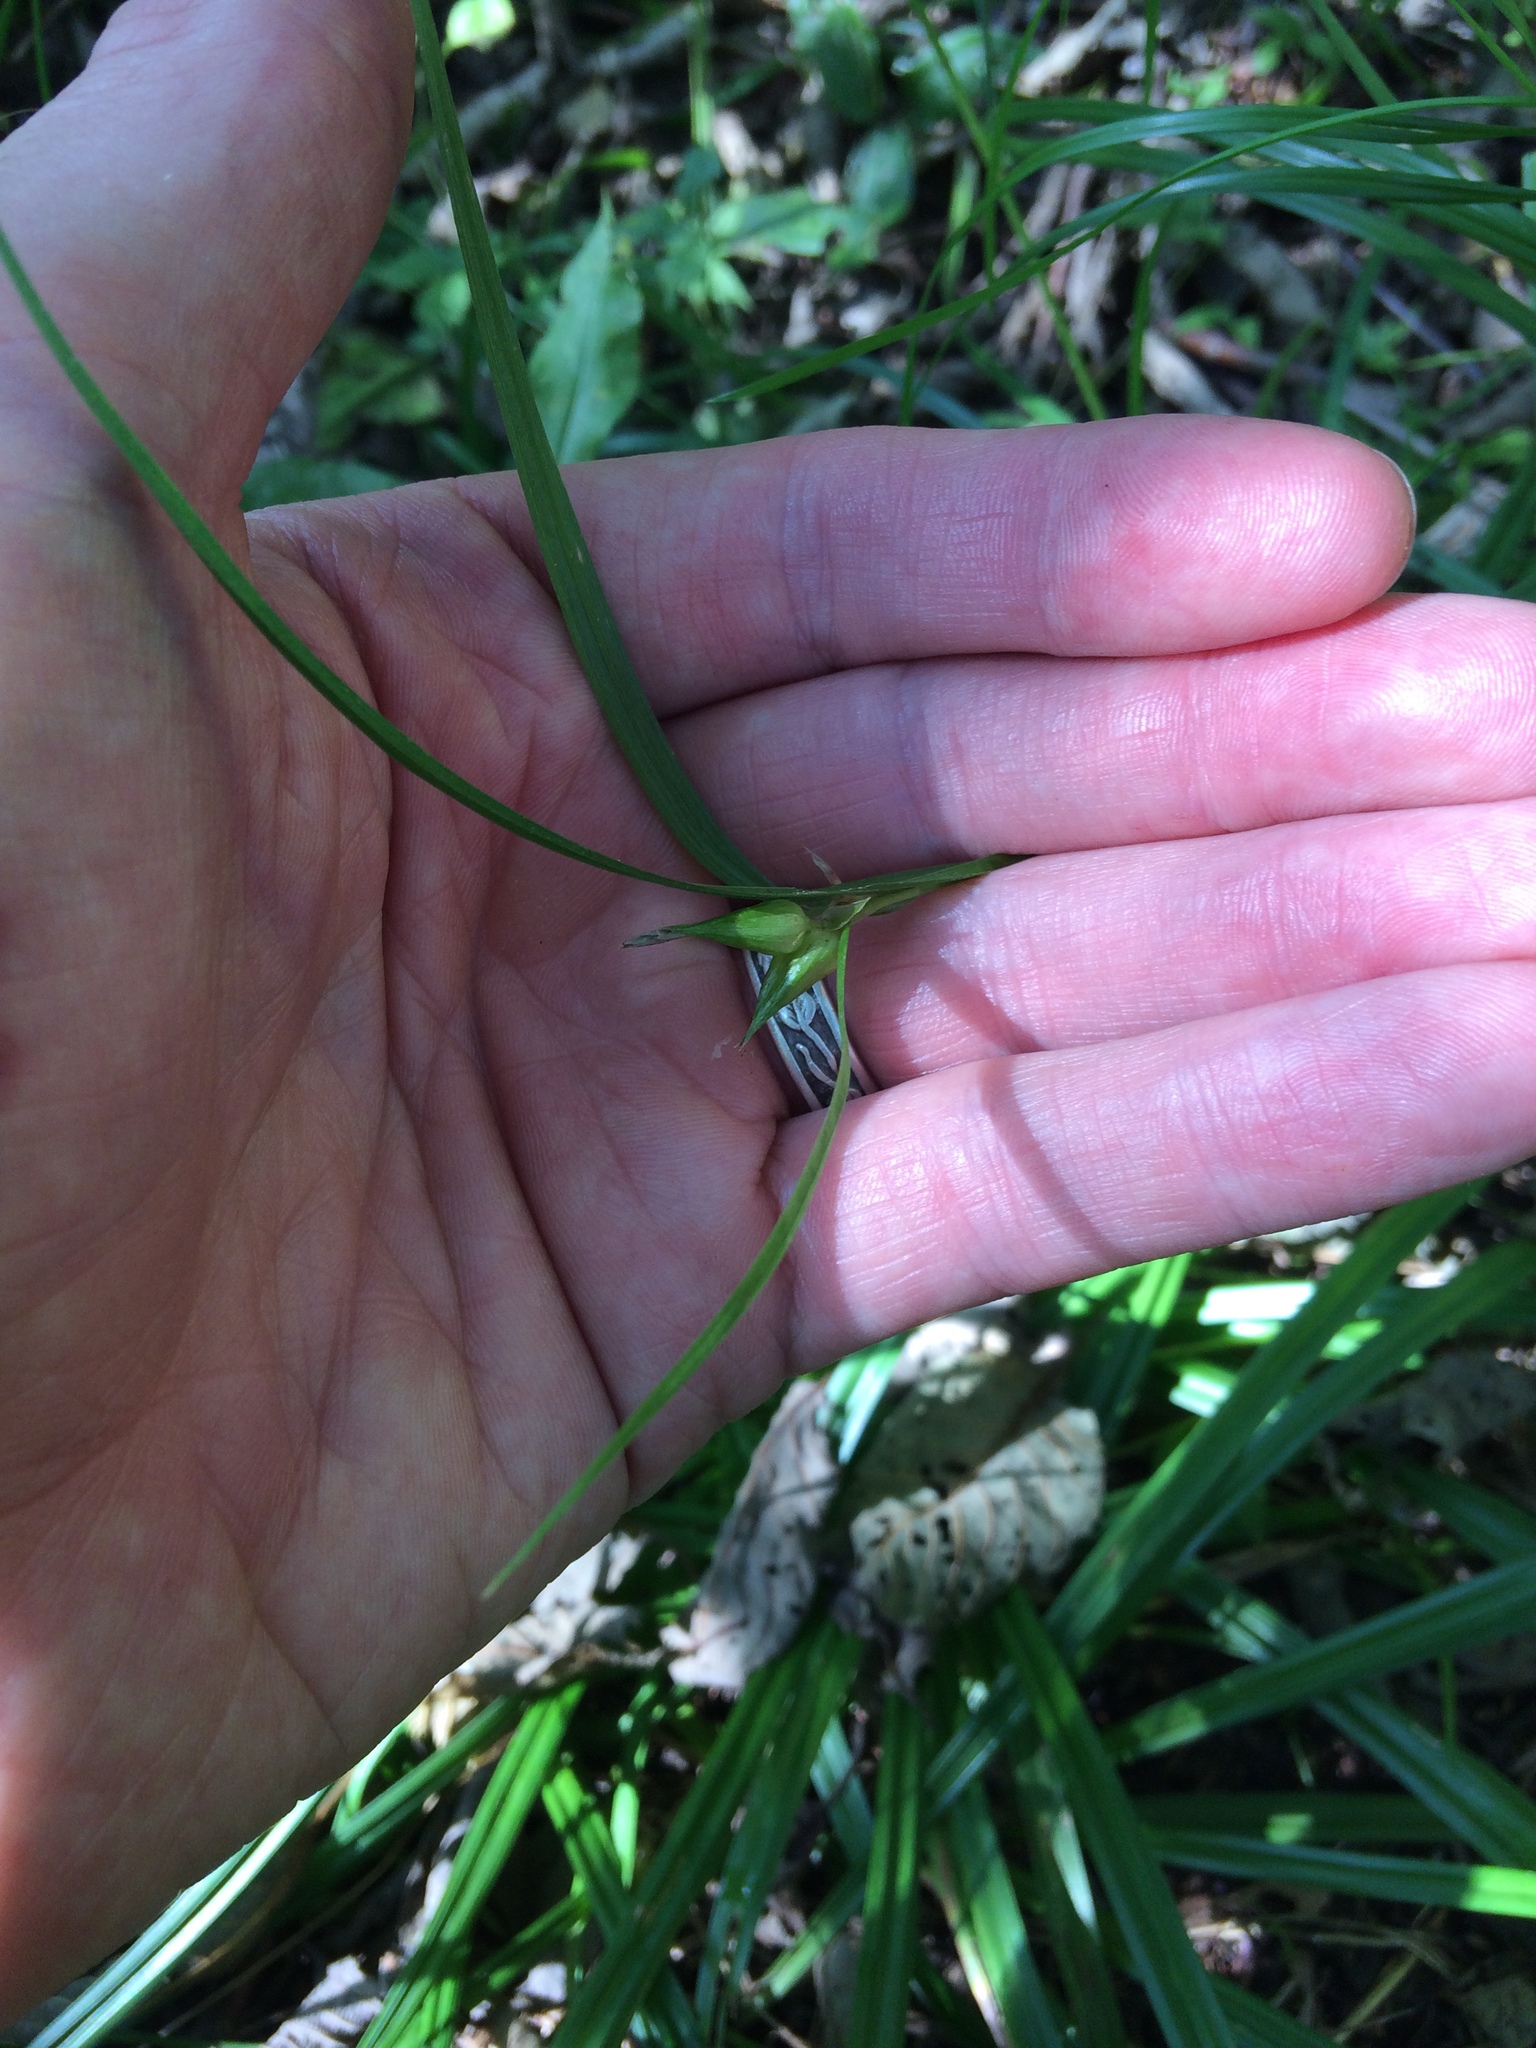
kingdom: Plantae
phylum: Tracheophyta
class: Liliopsida
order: Poales
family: Cyperaceae
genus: Carex
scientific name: Carex intumescens
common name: Greater bladder sedge
